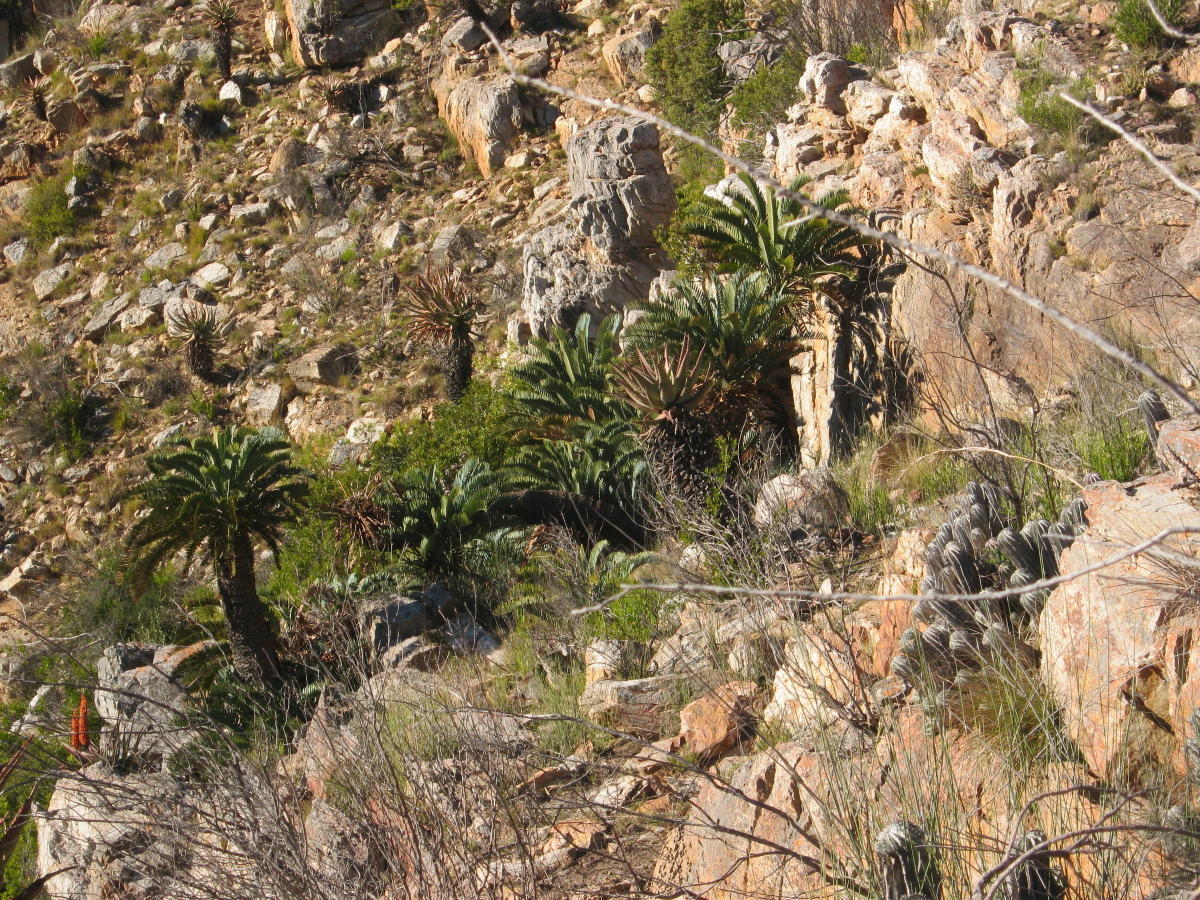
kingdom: Plantae
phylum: Tracheophyta
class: Cycadopsida
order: Cycadales
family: Zamiaceae
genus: Encephalartos
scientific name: Encephalartos longifolius
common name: Suurberg cycad
